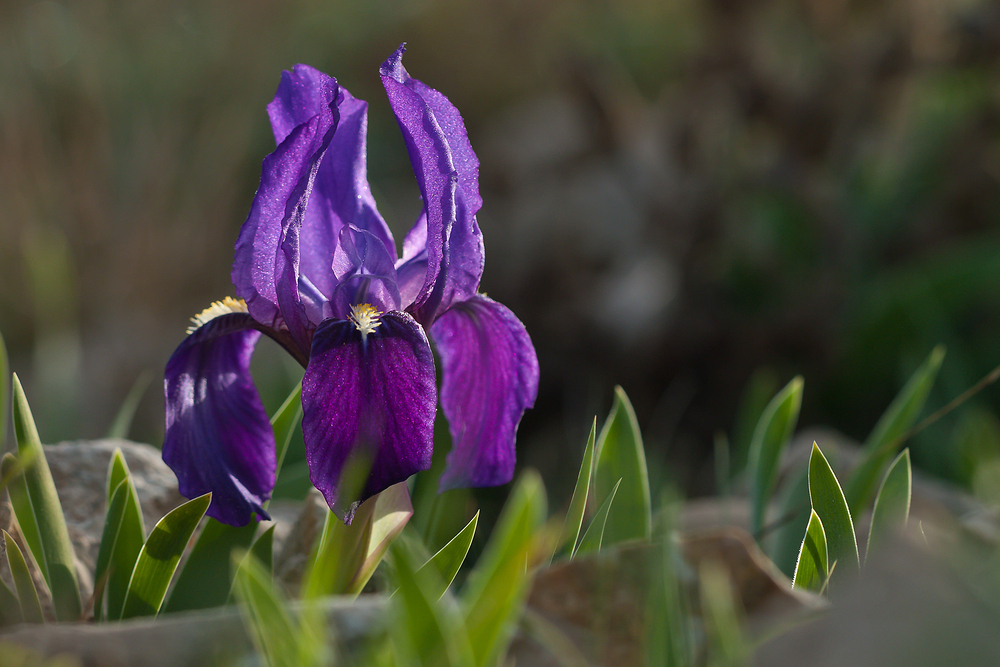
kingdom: Plantae
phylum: Tracheophyta
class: Liliopsida
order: Asparagales
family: Iridaceae
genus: Iris
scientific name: Iris lutescens
